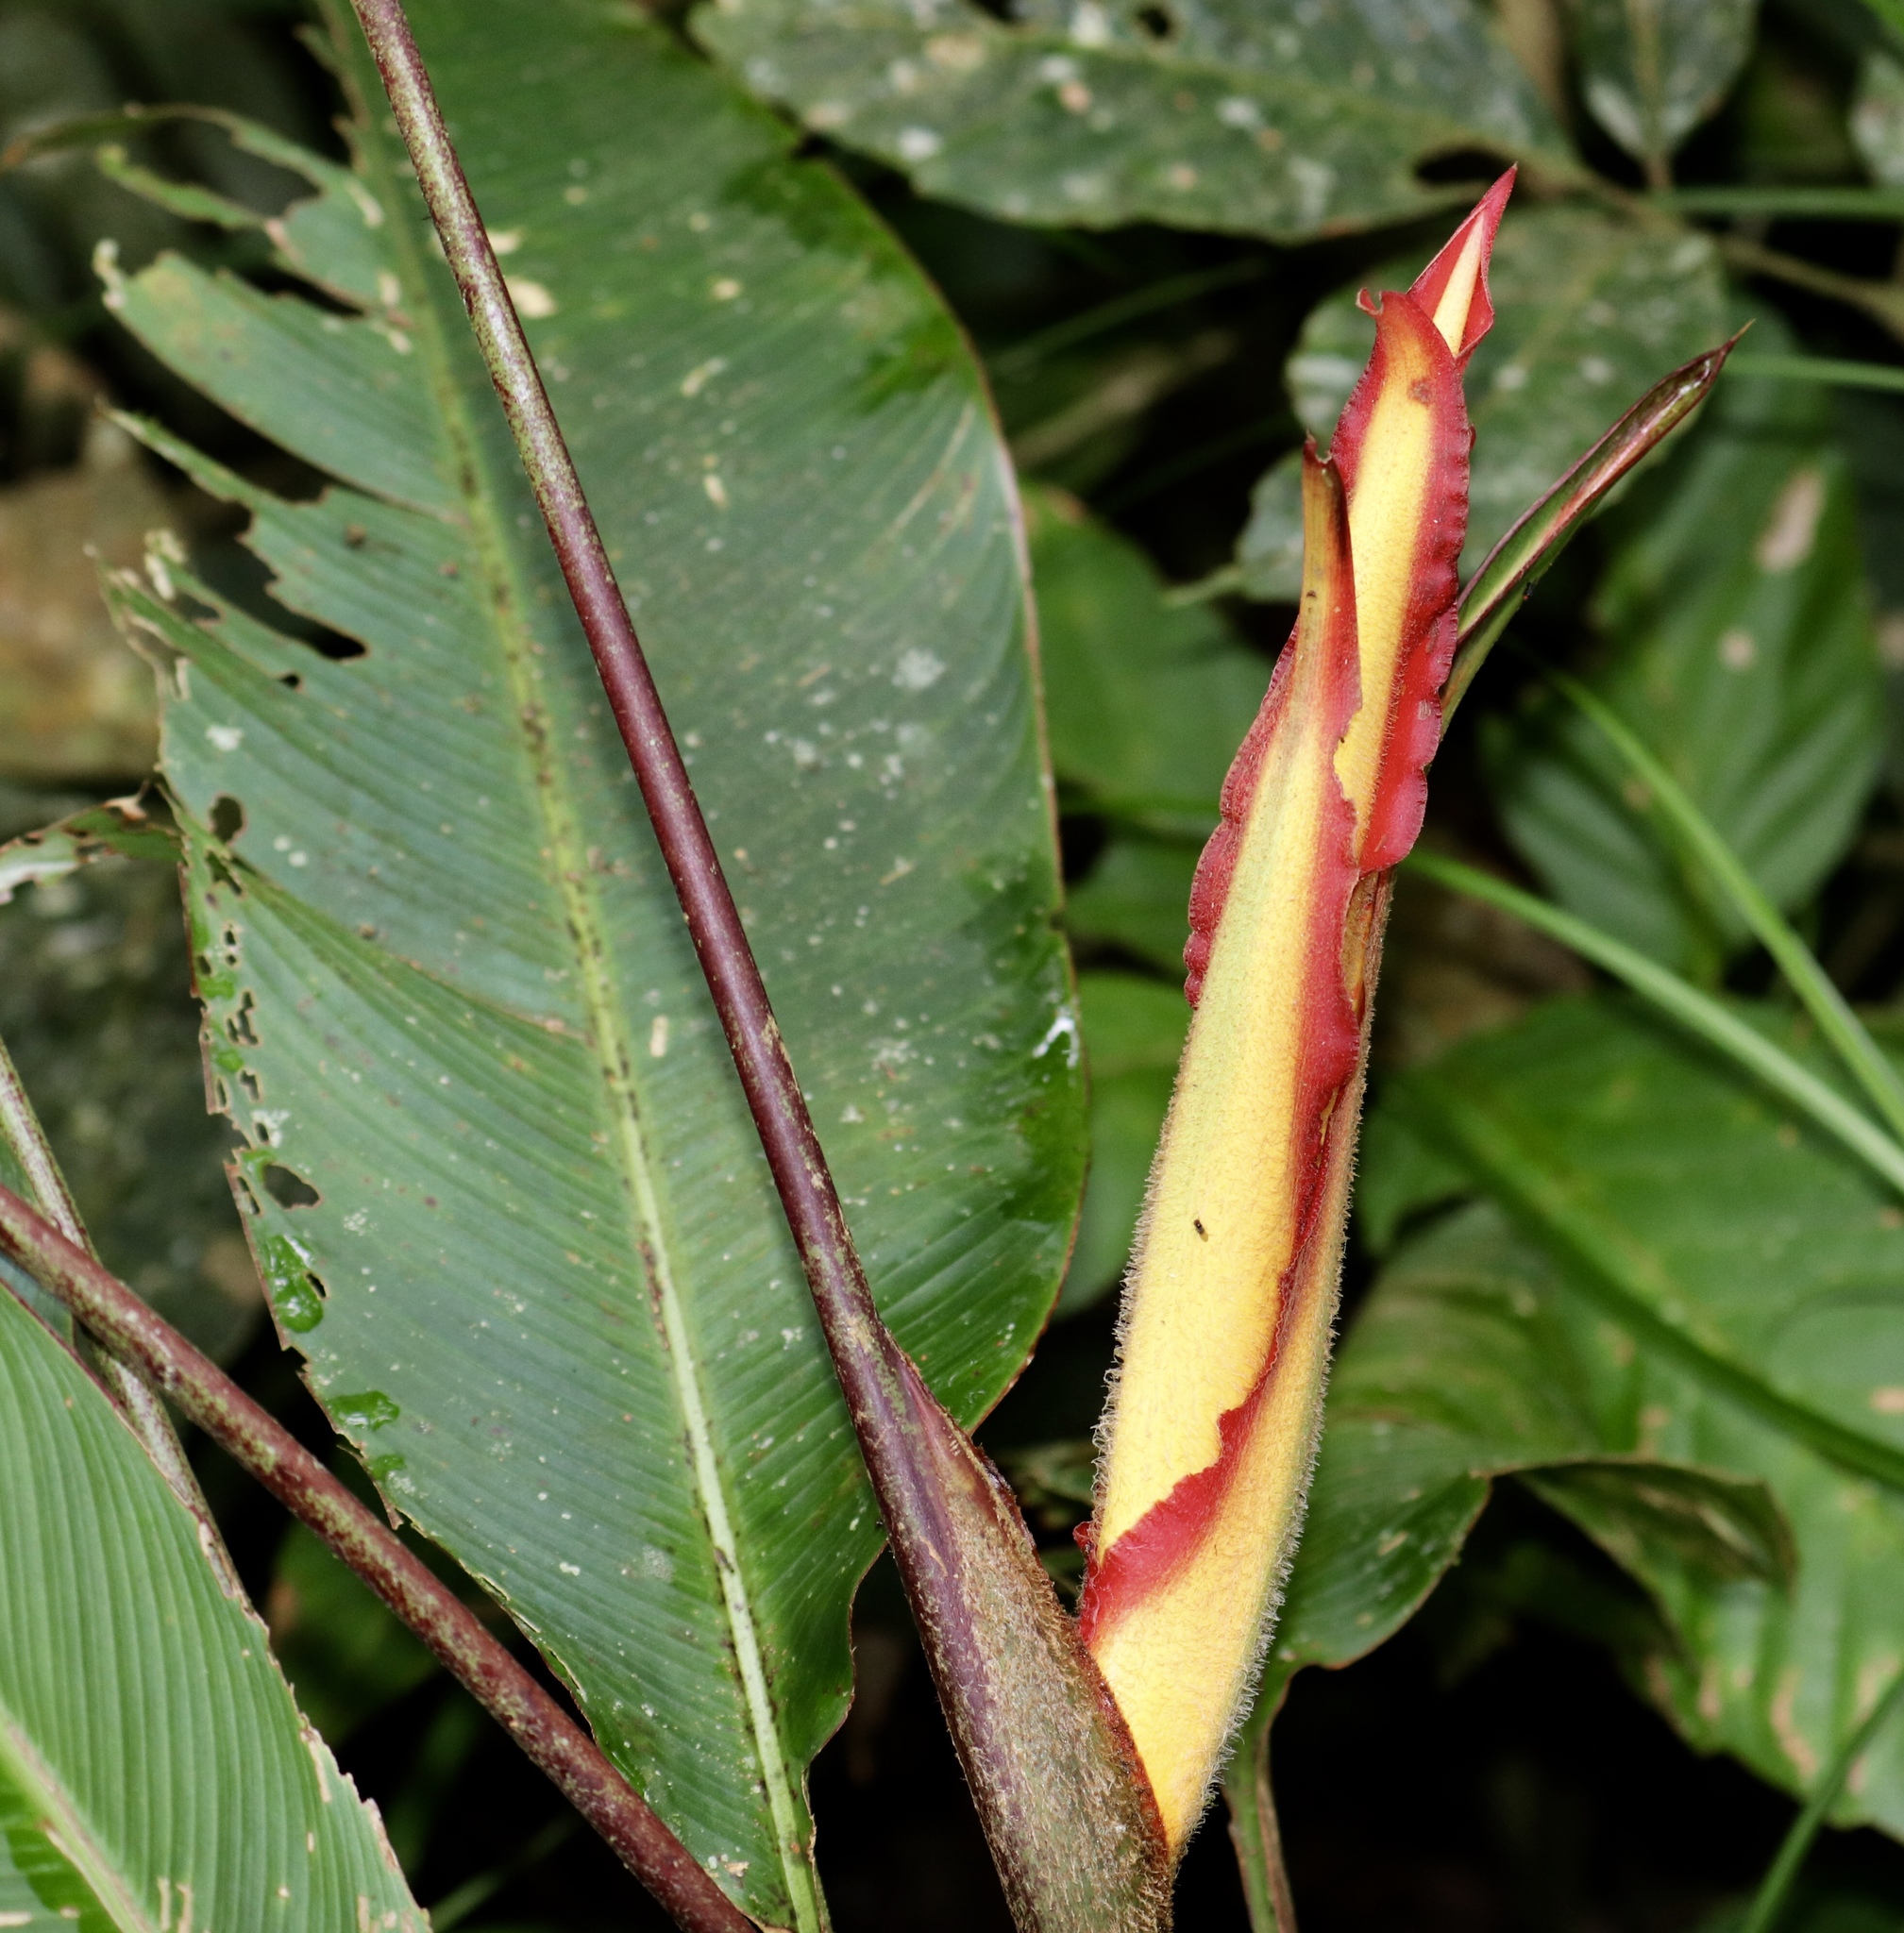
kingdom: Plantae
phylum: Tracheophyta
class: Liliopsida
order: Zingiberales
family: Heliconiaceae
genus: Heliconia
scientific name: Heliconia latispatha
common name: Expanded lobsterclaw
